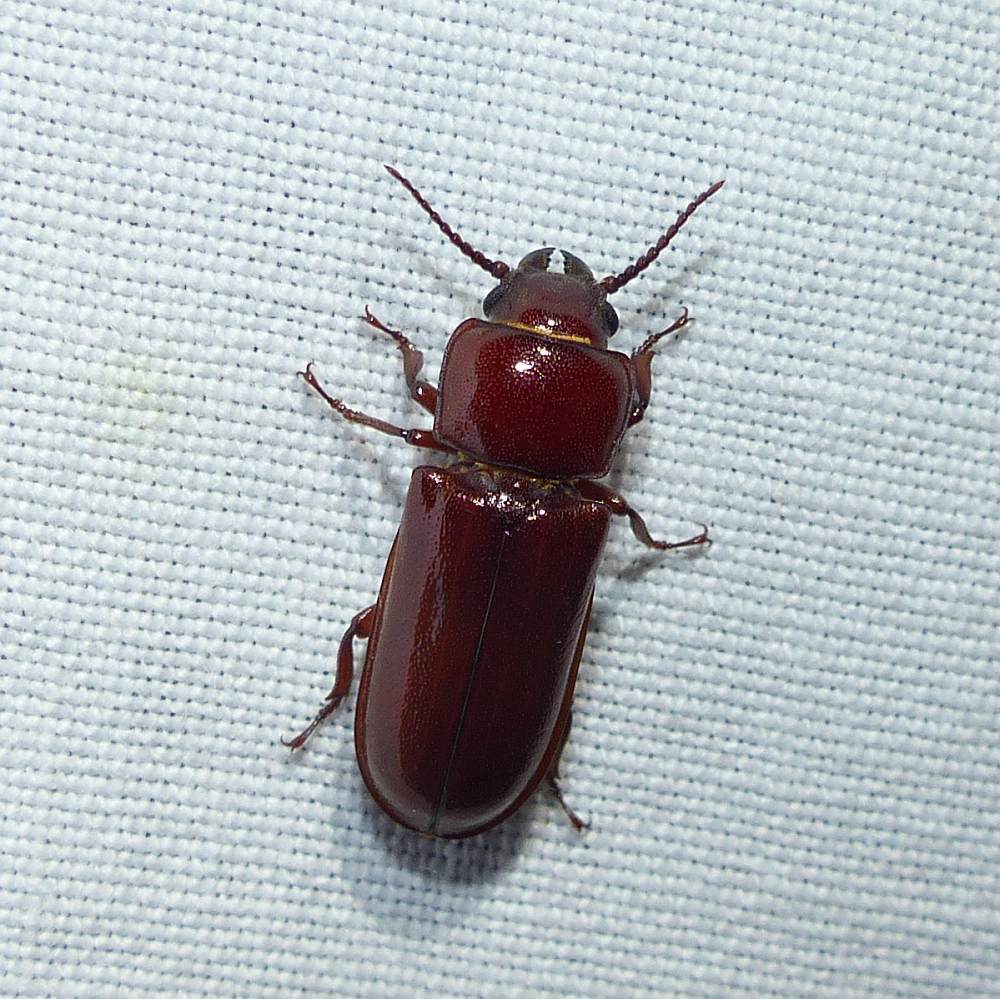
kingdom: Animalia
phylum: Arthropoda
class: Insecta
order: Coleoptera
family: Cerambycidae
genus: Neandra
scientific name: Neandra brunnea
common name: Pole borer
